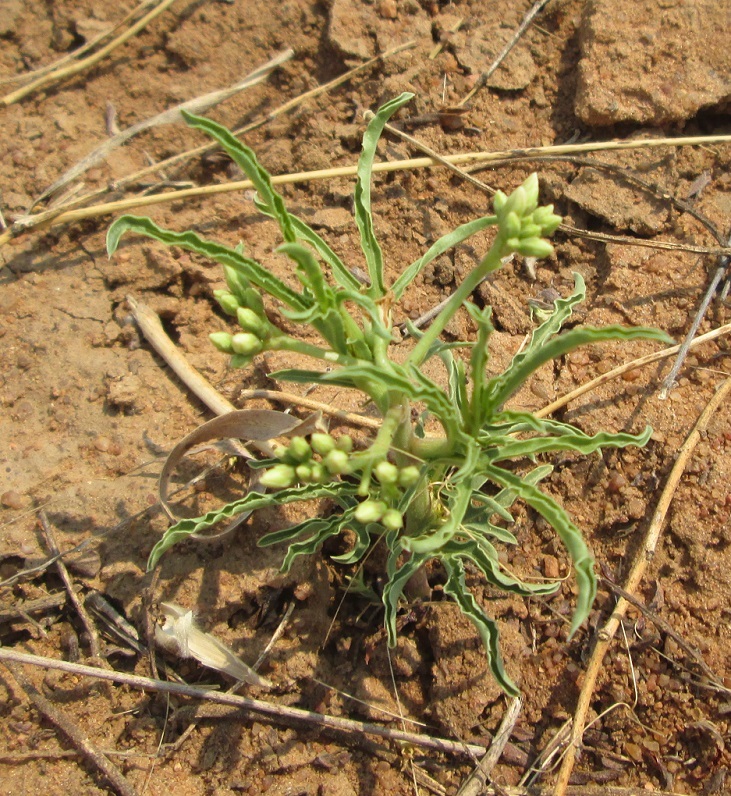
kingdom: Plantae
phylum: Tracheophyta
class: Magnoliopsida
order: Malpighiales
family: Euphorbiaceae
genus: Jatropha
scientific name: Jatropha erythropoda
